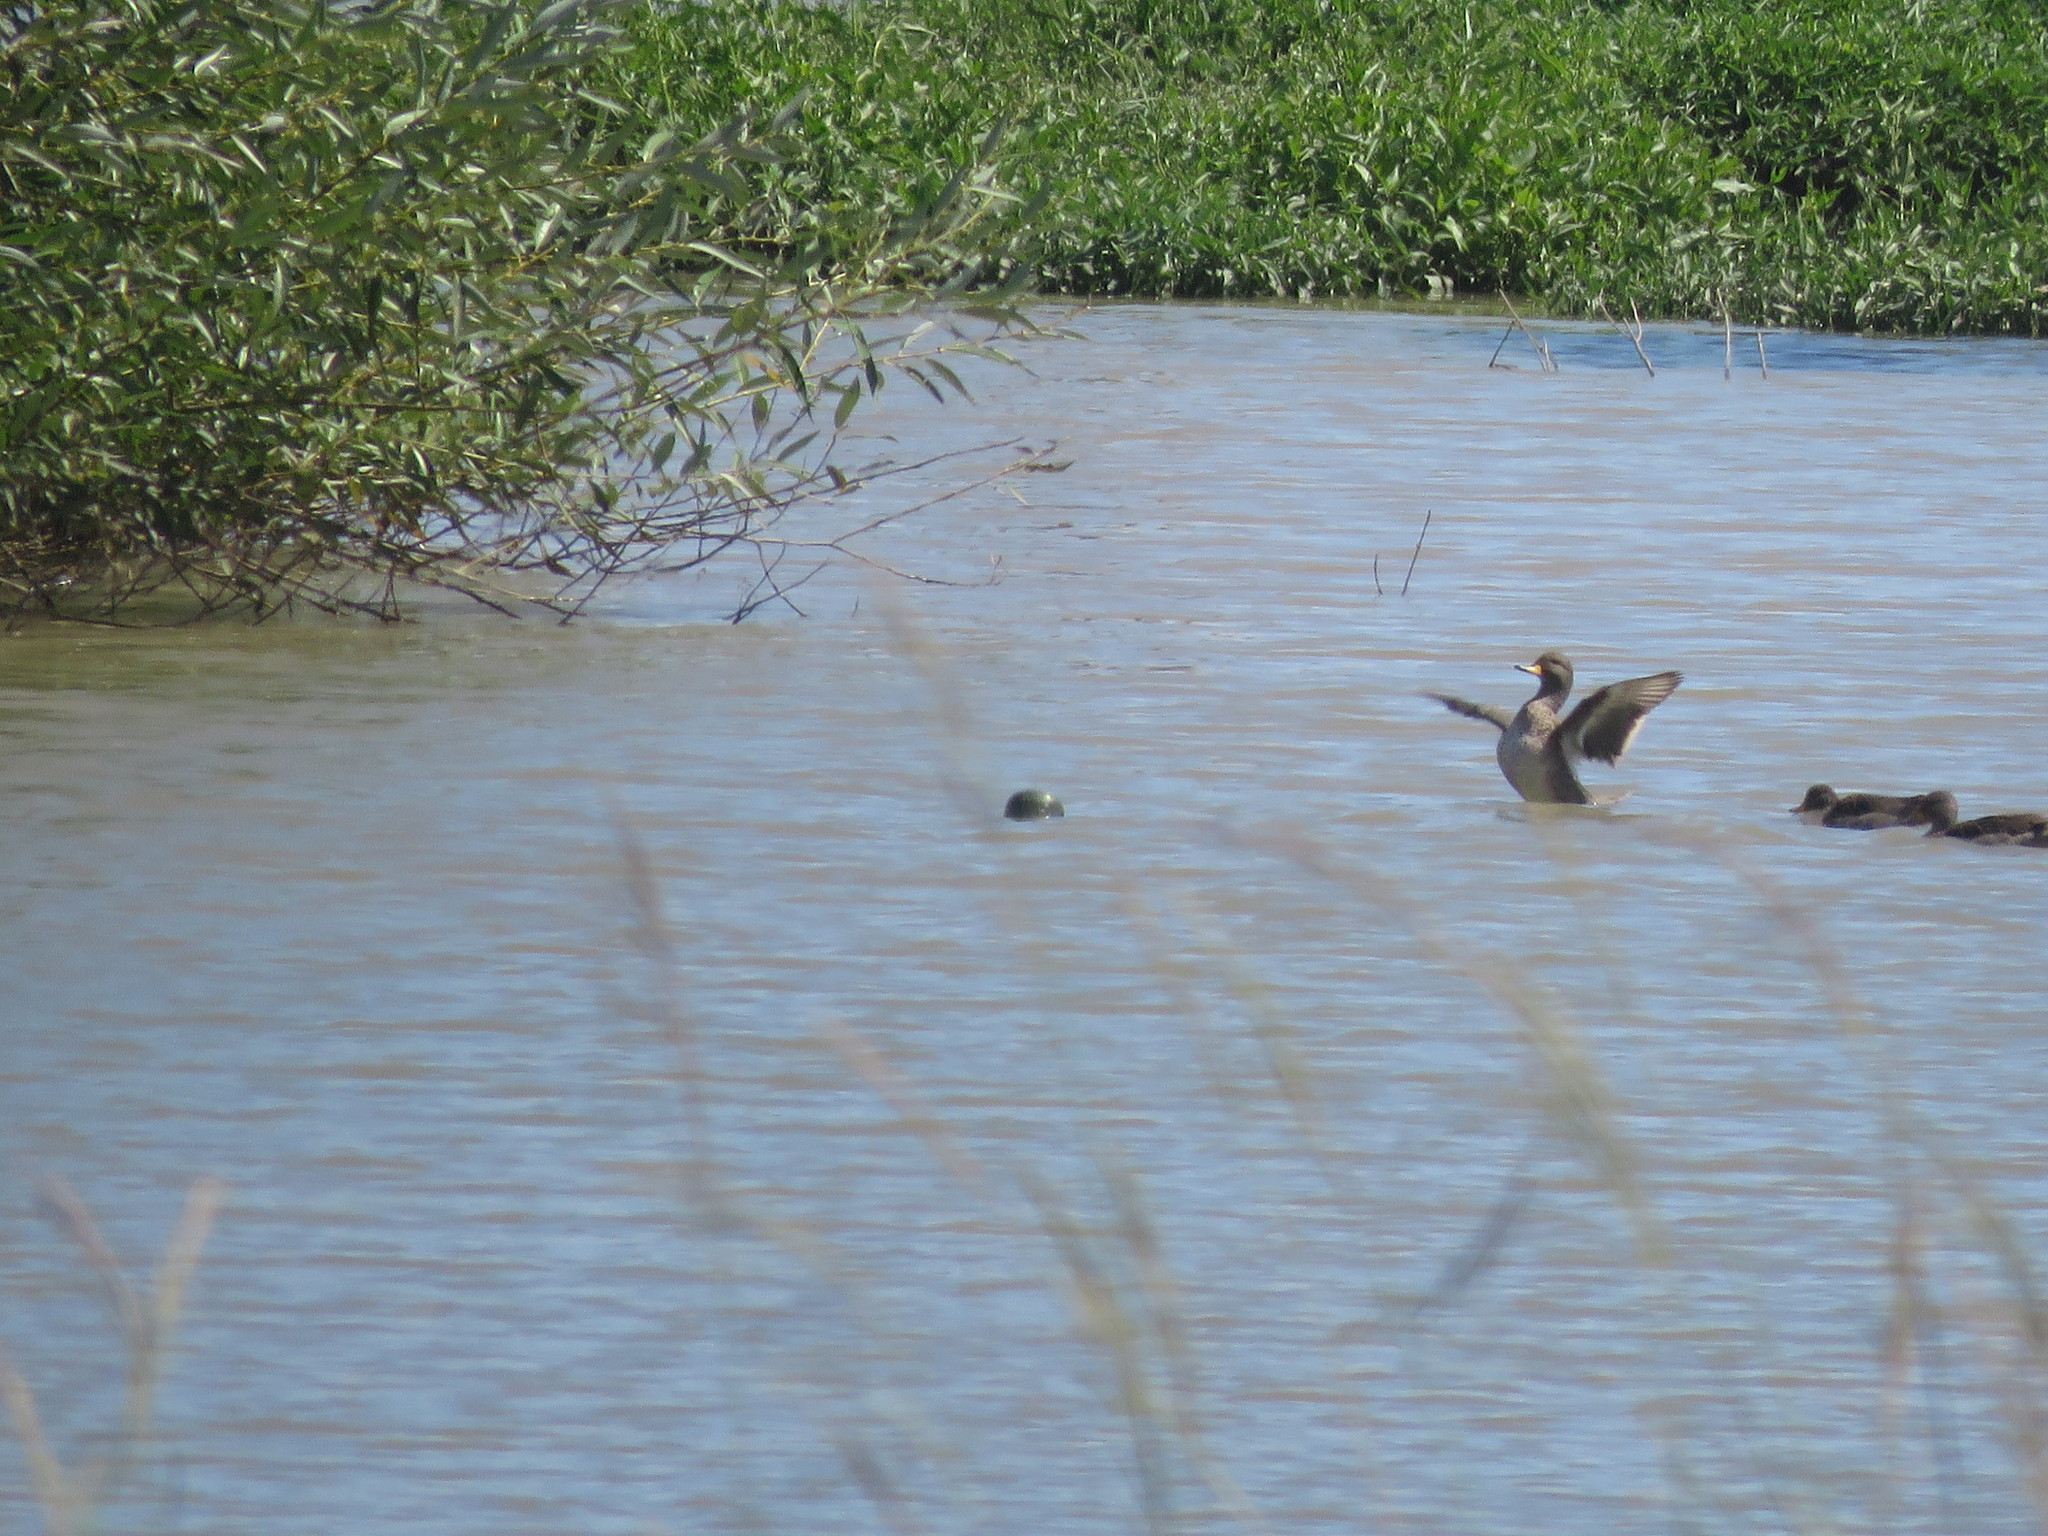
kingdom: Animalia
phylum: Chordata
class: Aves
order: Anseriformes
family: Anatidae
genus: Anas
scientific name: Anas flavirostris
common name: Yellow-billed teal
